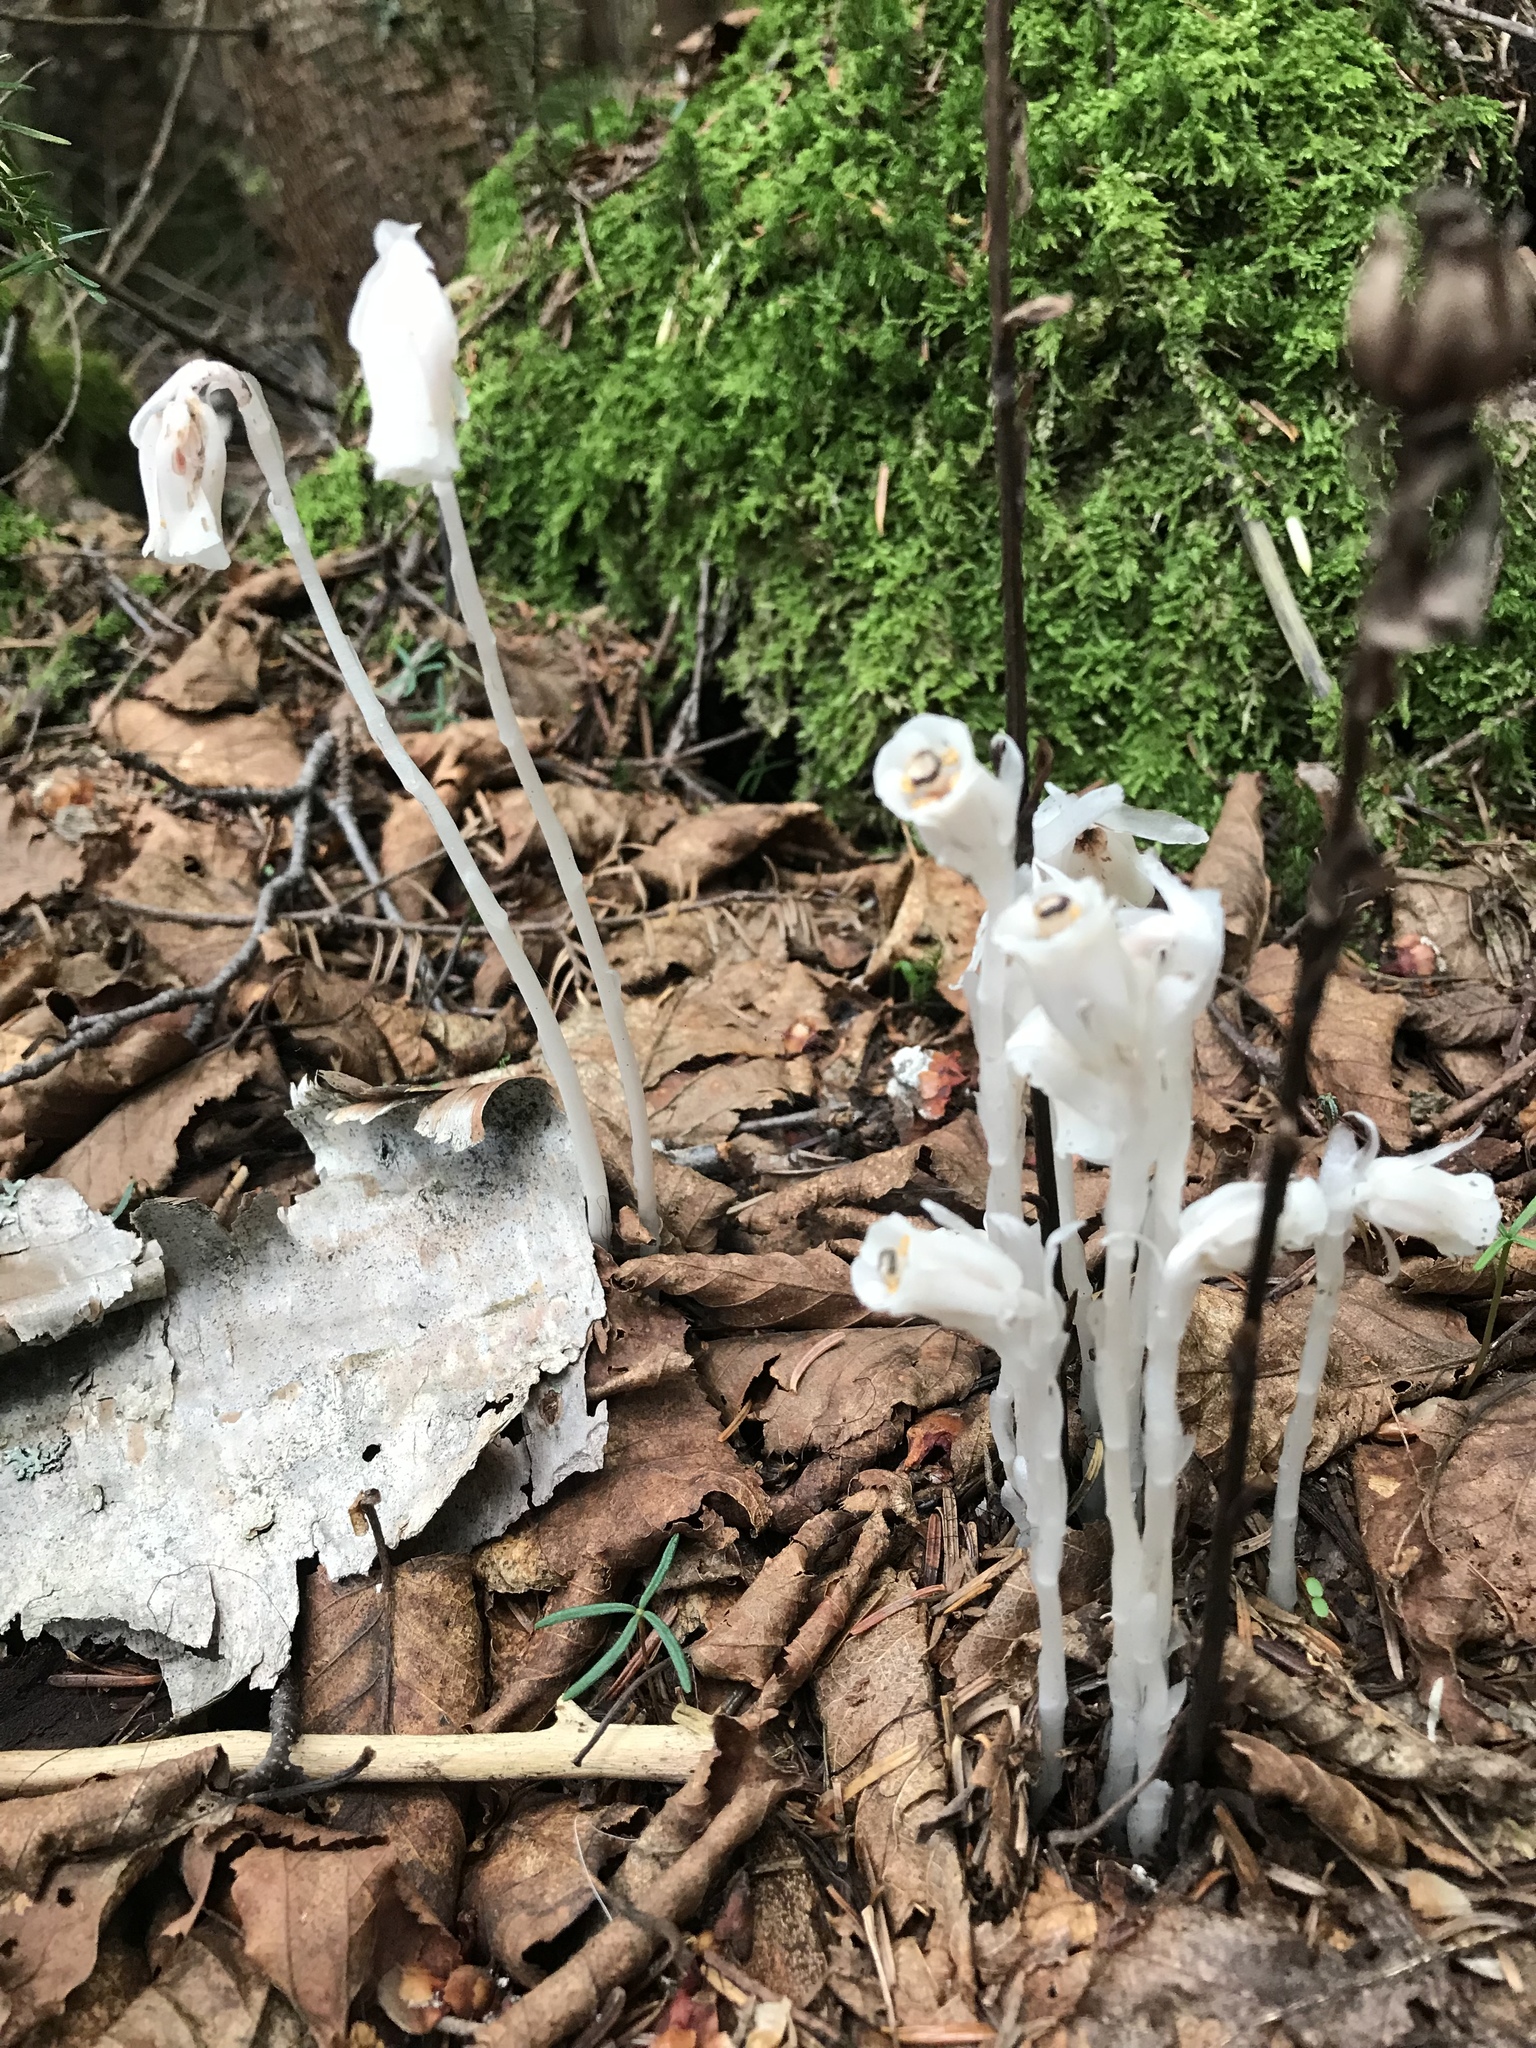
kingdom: Plantae
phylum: Tracheophyta
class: Magnoliopsida
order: Ericales
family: Ericaceae
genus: Monotropa
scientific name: Monotropa uniflora
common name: Convulsion root
